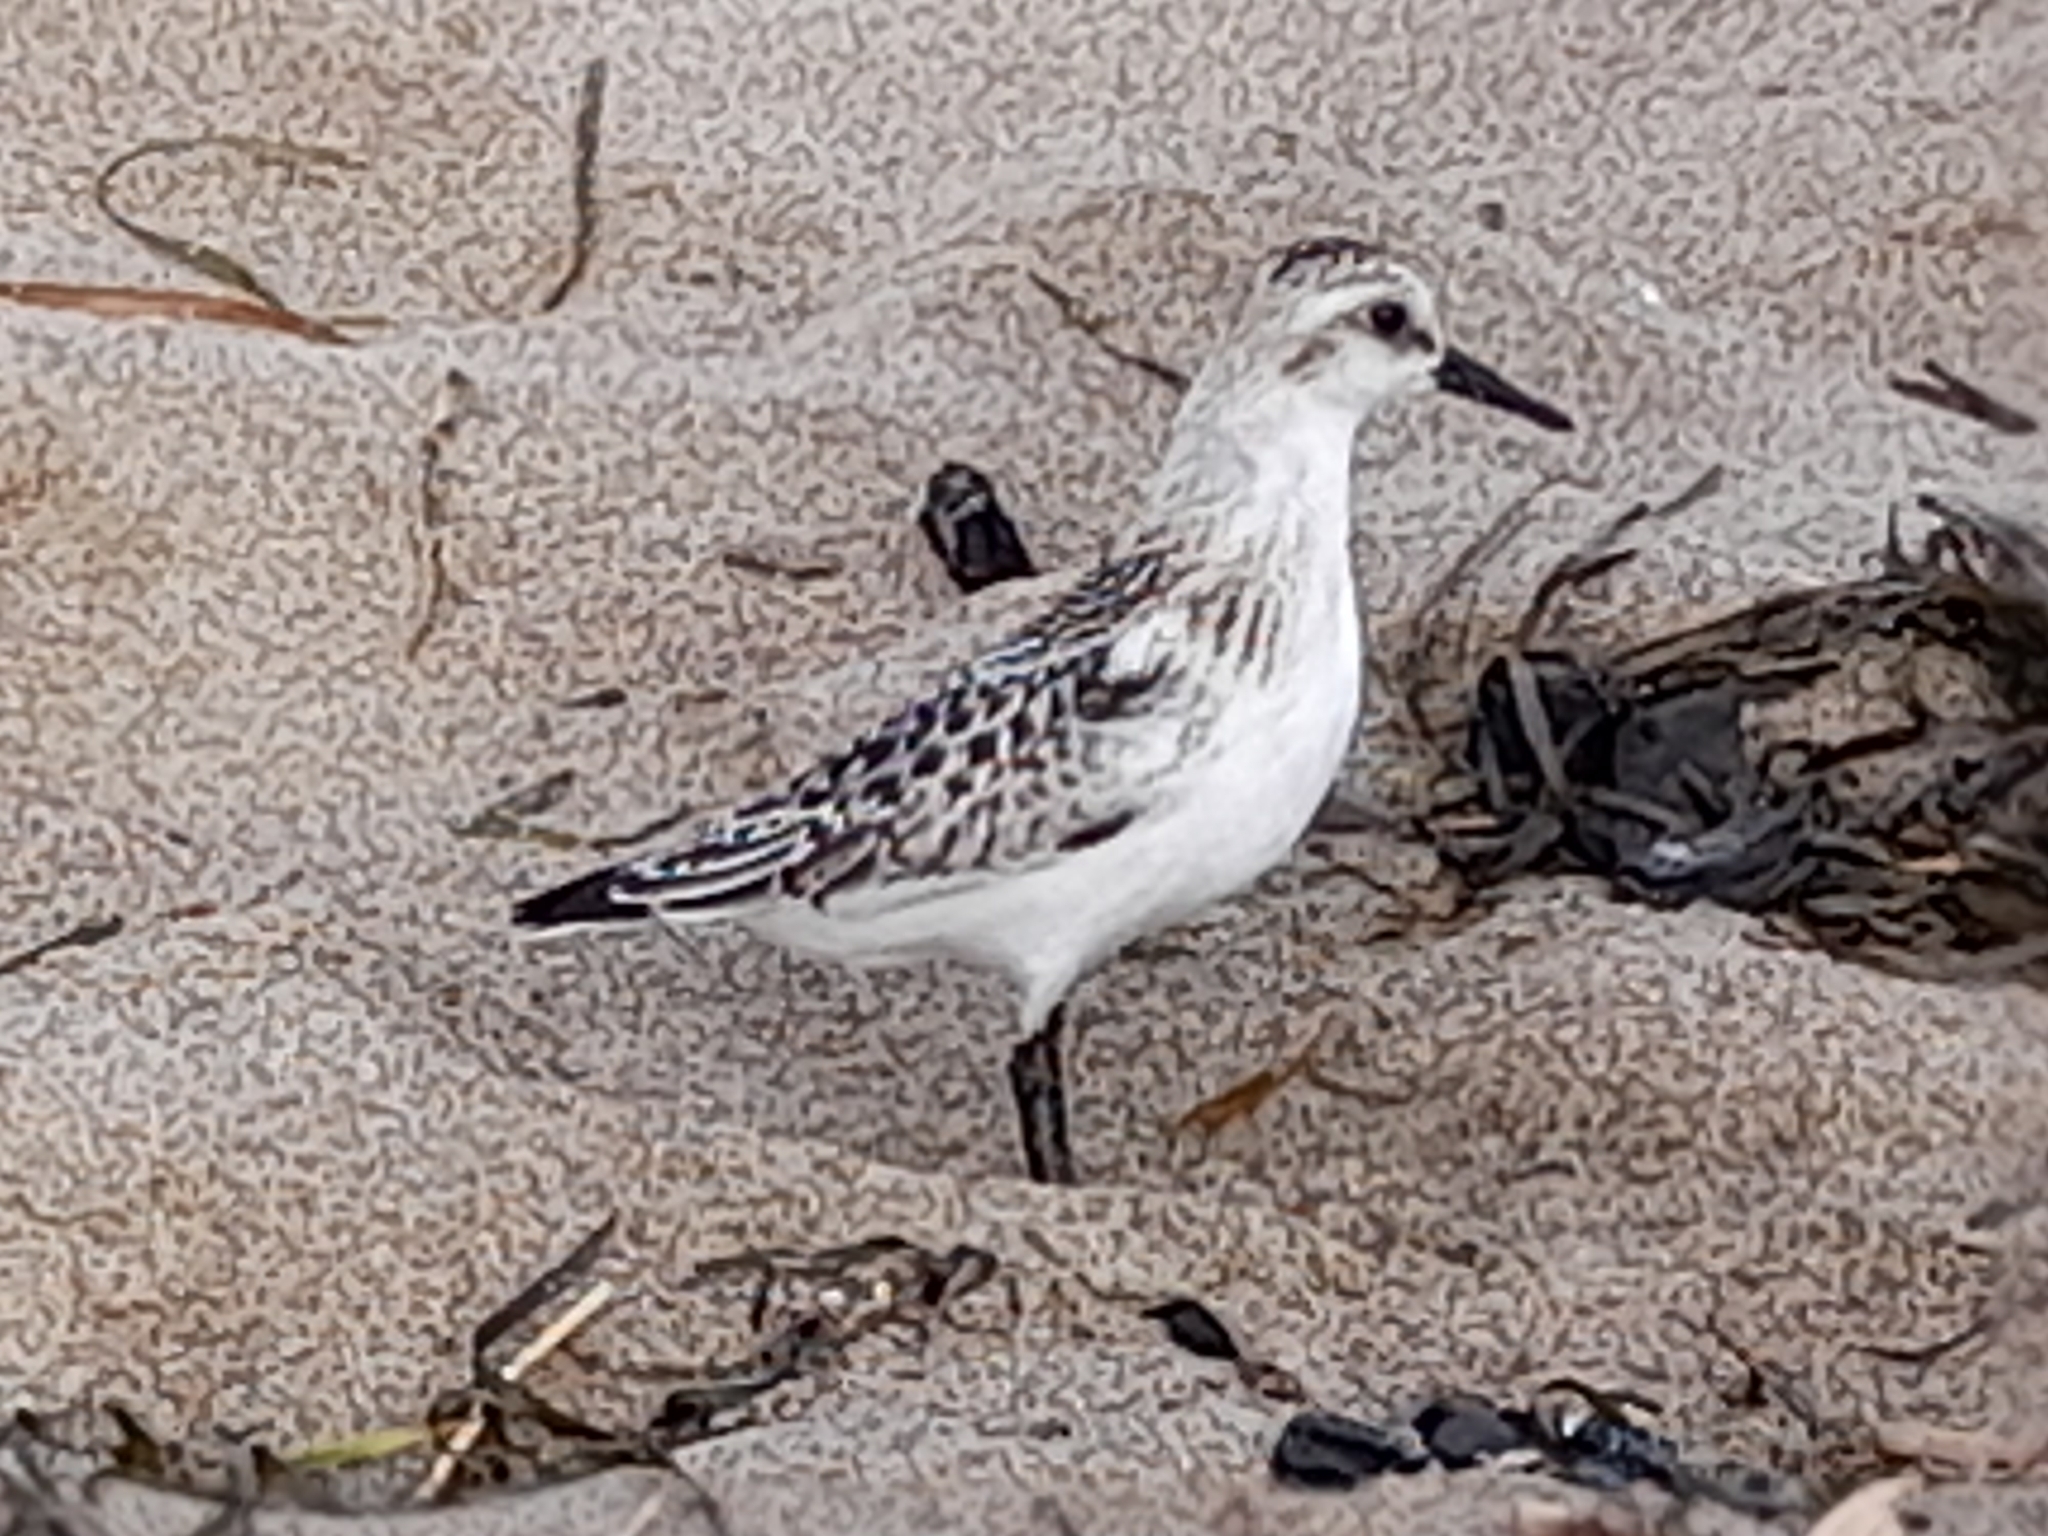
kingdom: Animalia
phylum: Chordata
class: Aves
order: Charadriiformes
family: Scolopacidae
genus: Calidris
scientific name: Calidris alba
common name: Sanderling
